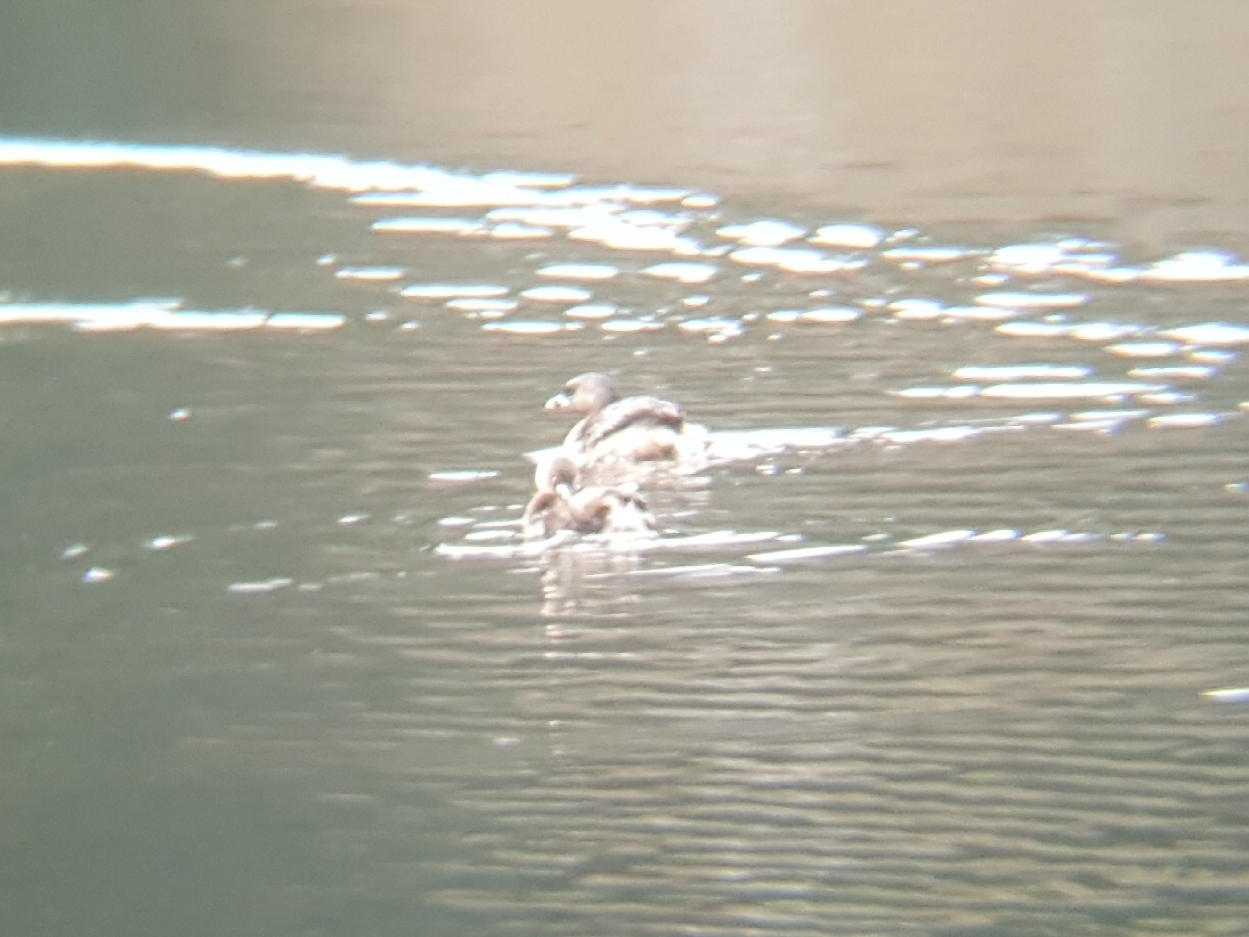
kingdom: Animalia
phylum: Chordata
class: Aves
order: Podicipediformes
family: Podicipedidae
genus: Podilymbus
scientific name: Podilymbus podiceps
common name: Pied-billed grebe
